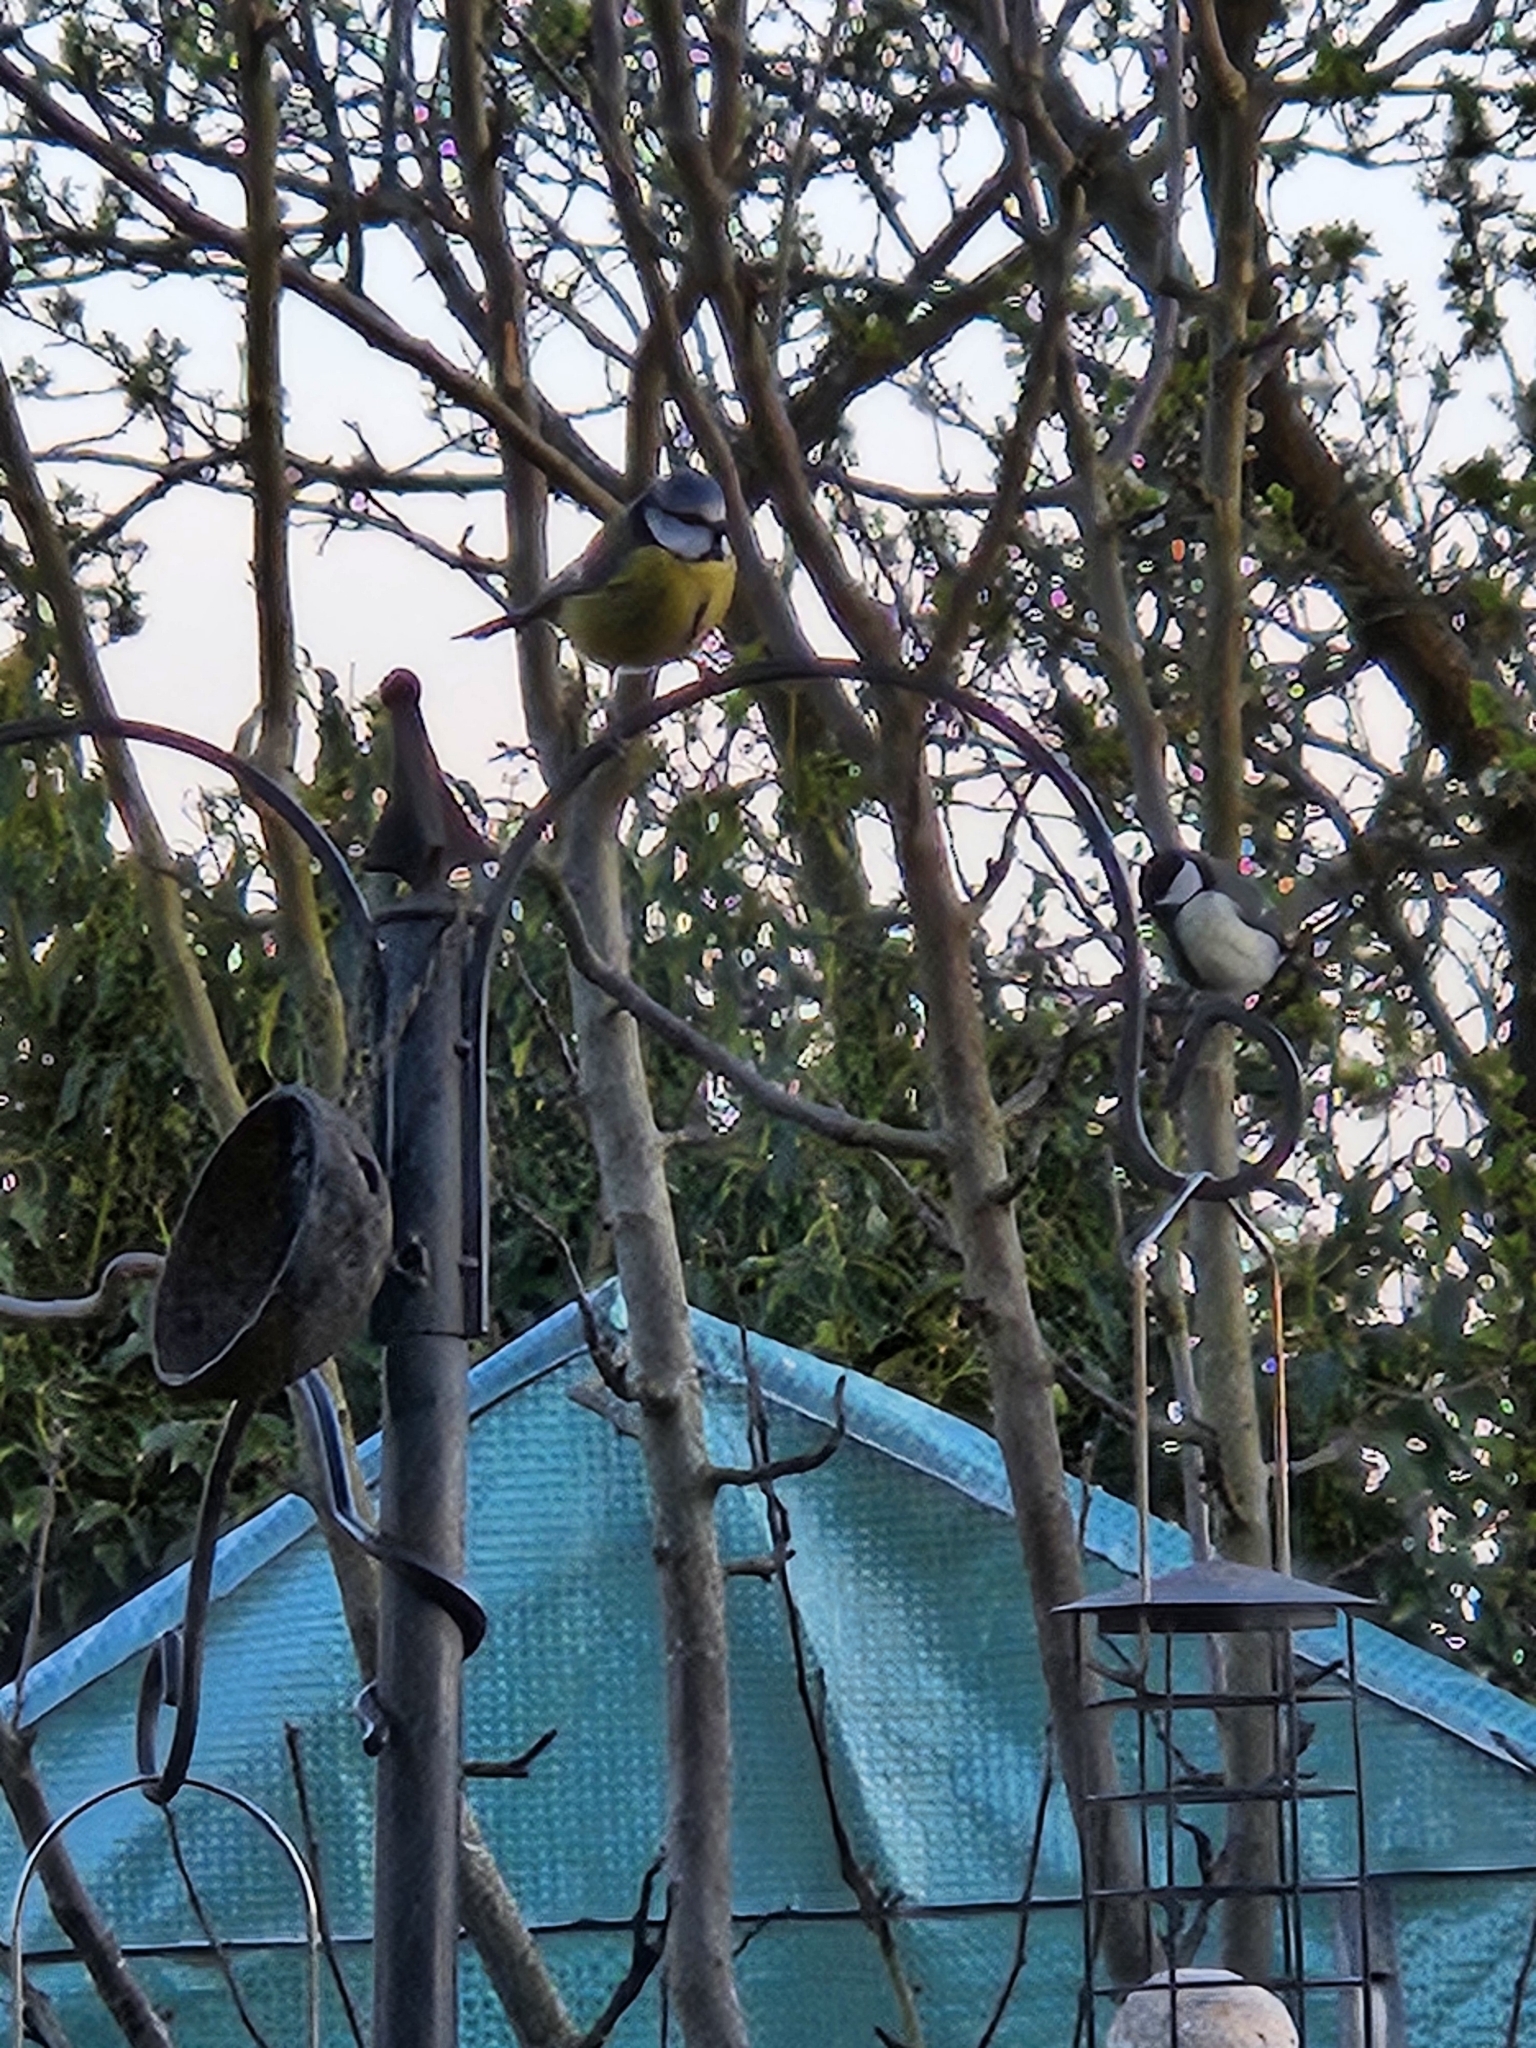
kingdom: Animalia
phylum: Chordata
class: Aves
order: Passeriformes
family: Paridae
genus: Cyanistes
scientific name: Cyanistes caeruleus
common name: Eurasian blue tit
